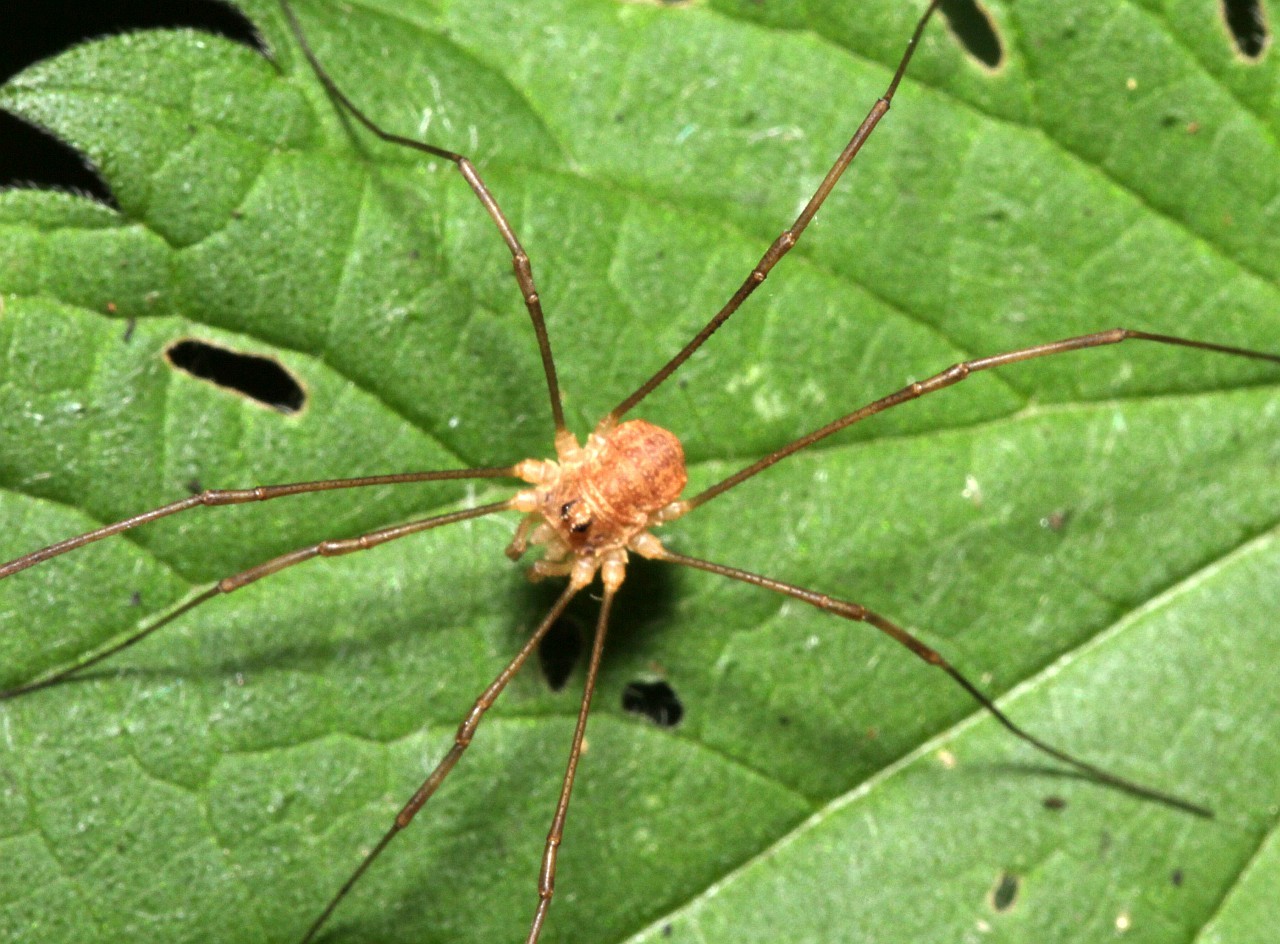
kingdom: Animalia
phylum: Arthropoda
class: Arachnida
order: Opiliones
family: Phalangiidae
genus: Rilaena
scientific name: Rilaena triangularis
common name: Spring harvestman
